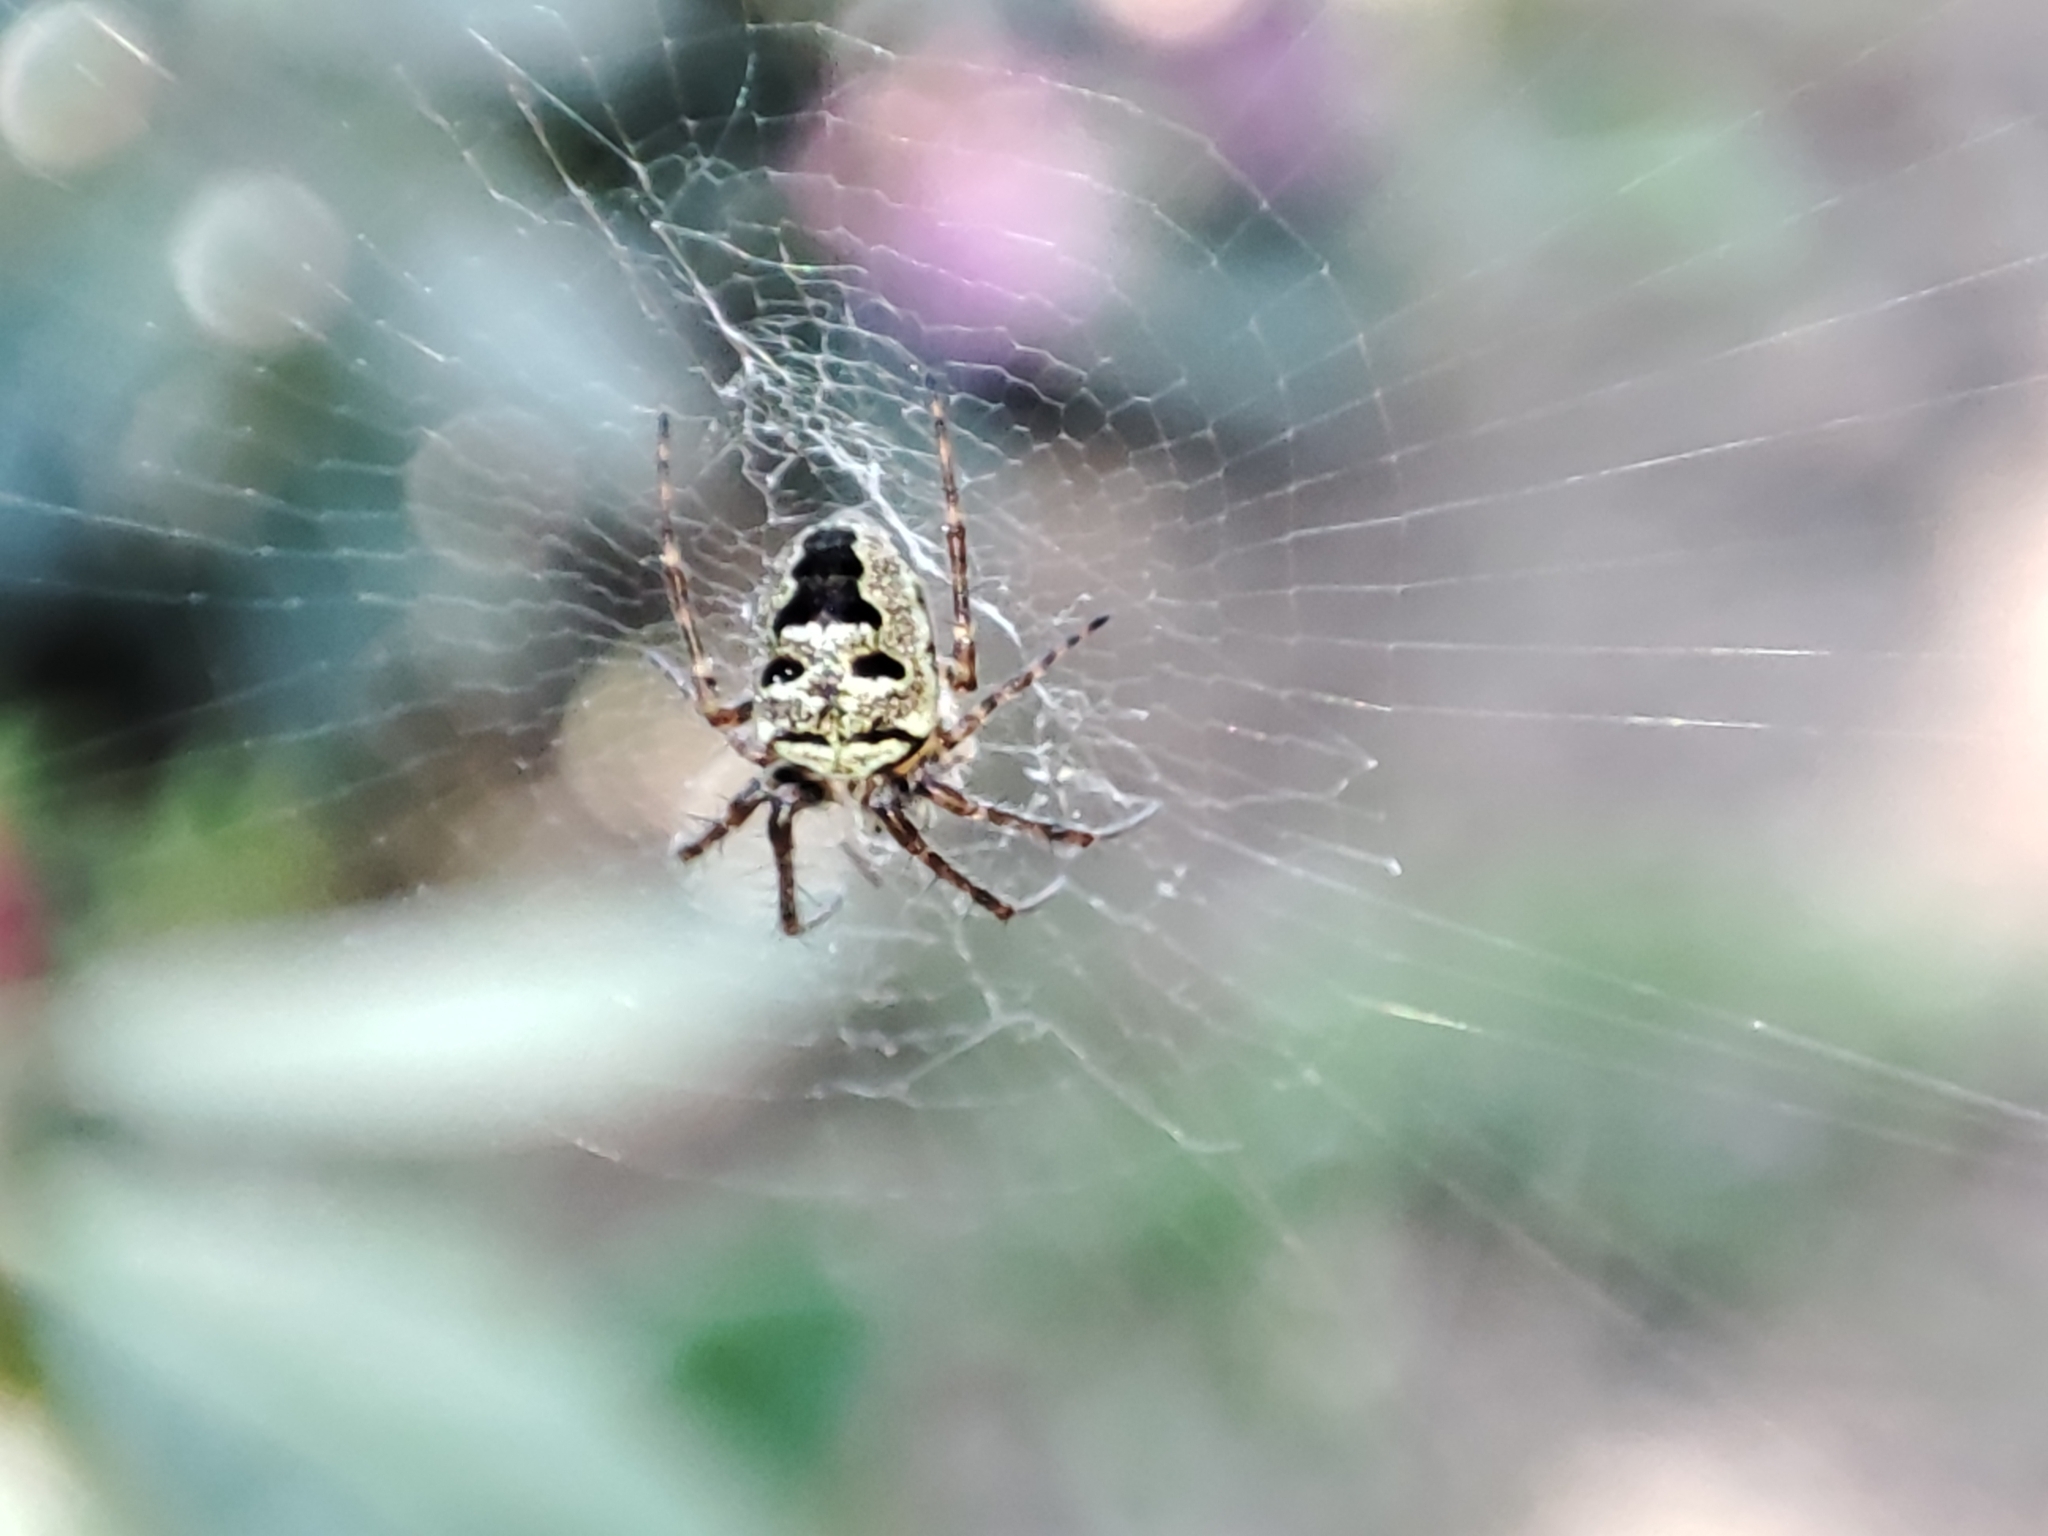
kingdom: Animalia
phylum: Arthropoda
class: Arachnida
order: Araneae
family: Araneidae
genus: Zilla
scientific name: Zilla diodia
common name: Zilla diodia
